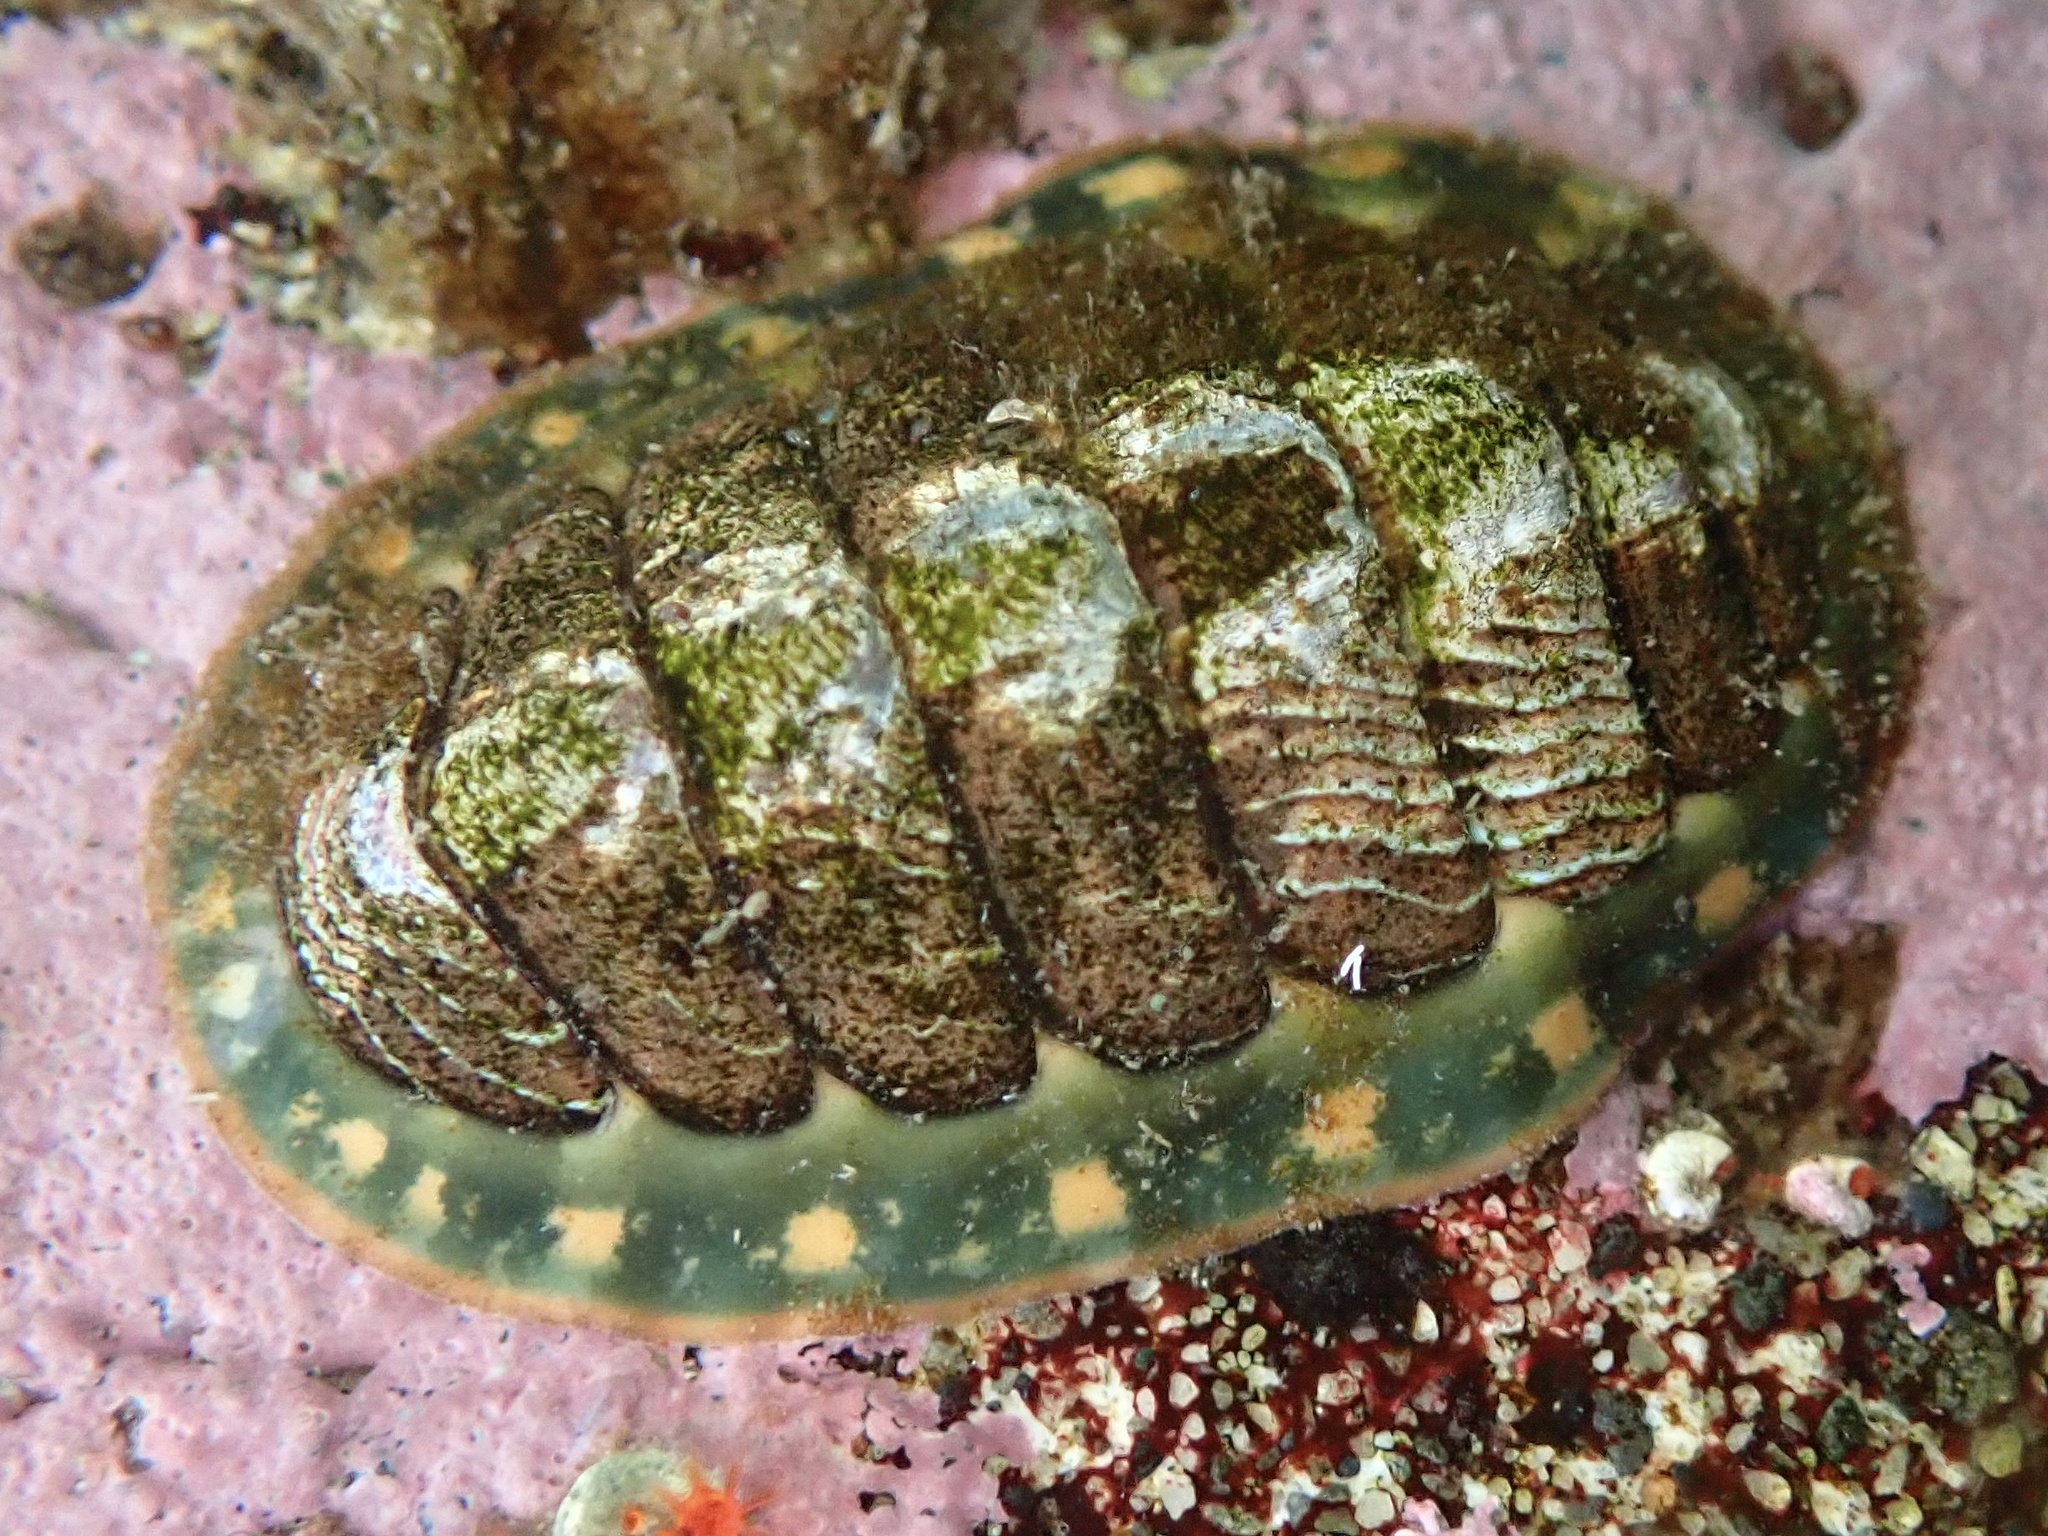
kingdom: Animalia
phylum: Mollusca
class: Polyplacophora
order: Chitonida
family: Tonicellidae
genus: Tonicella
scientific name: Tonicella lineata
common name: Lined chiton
